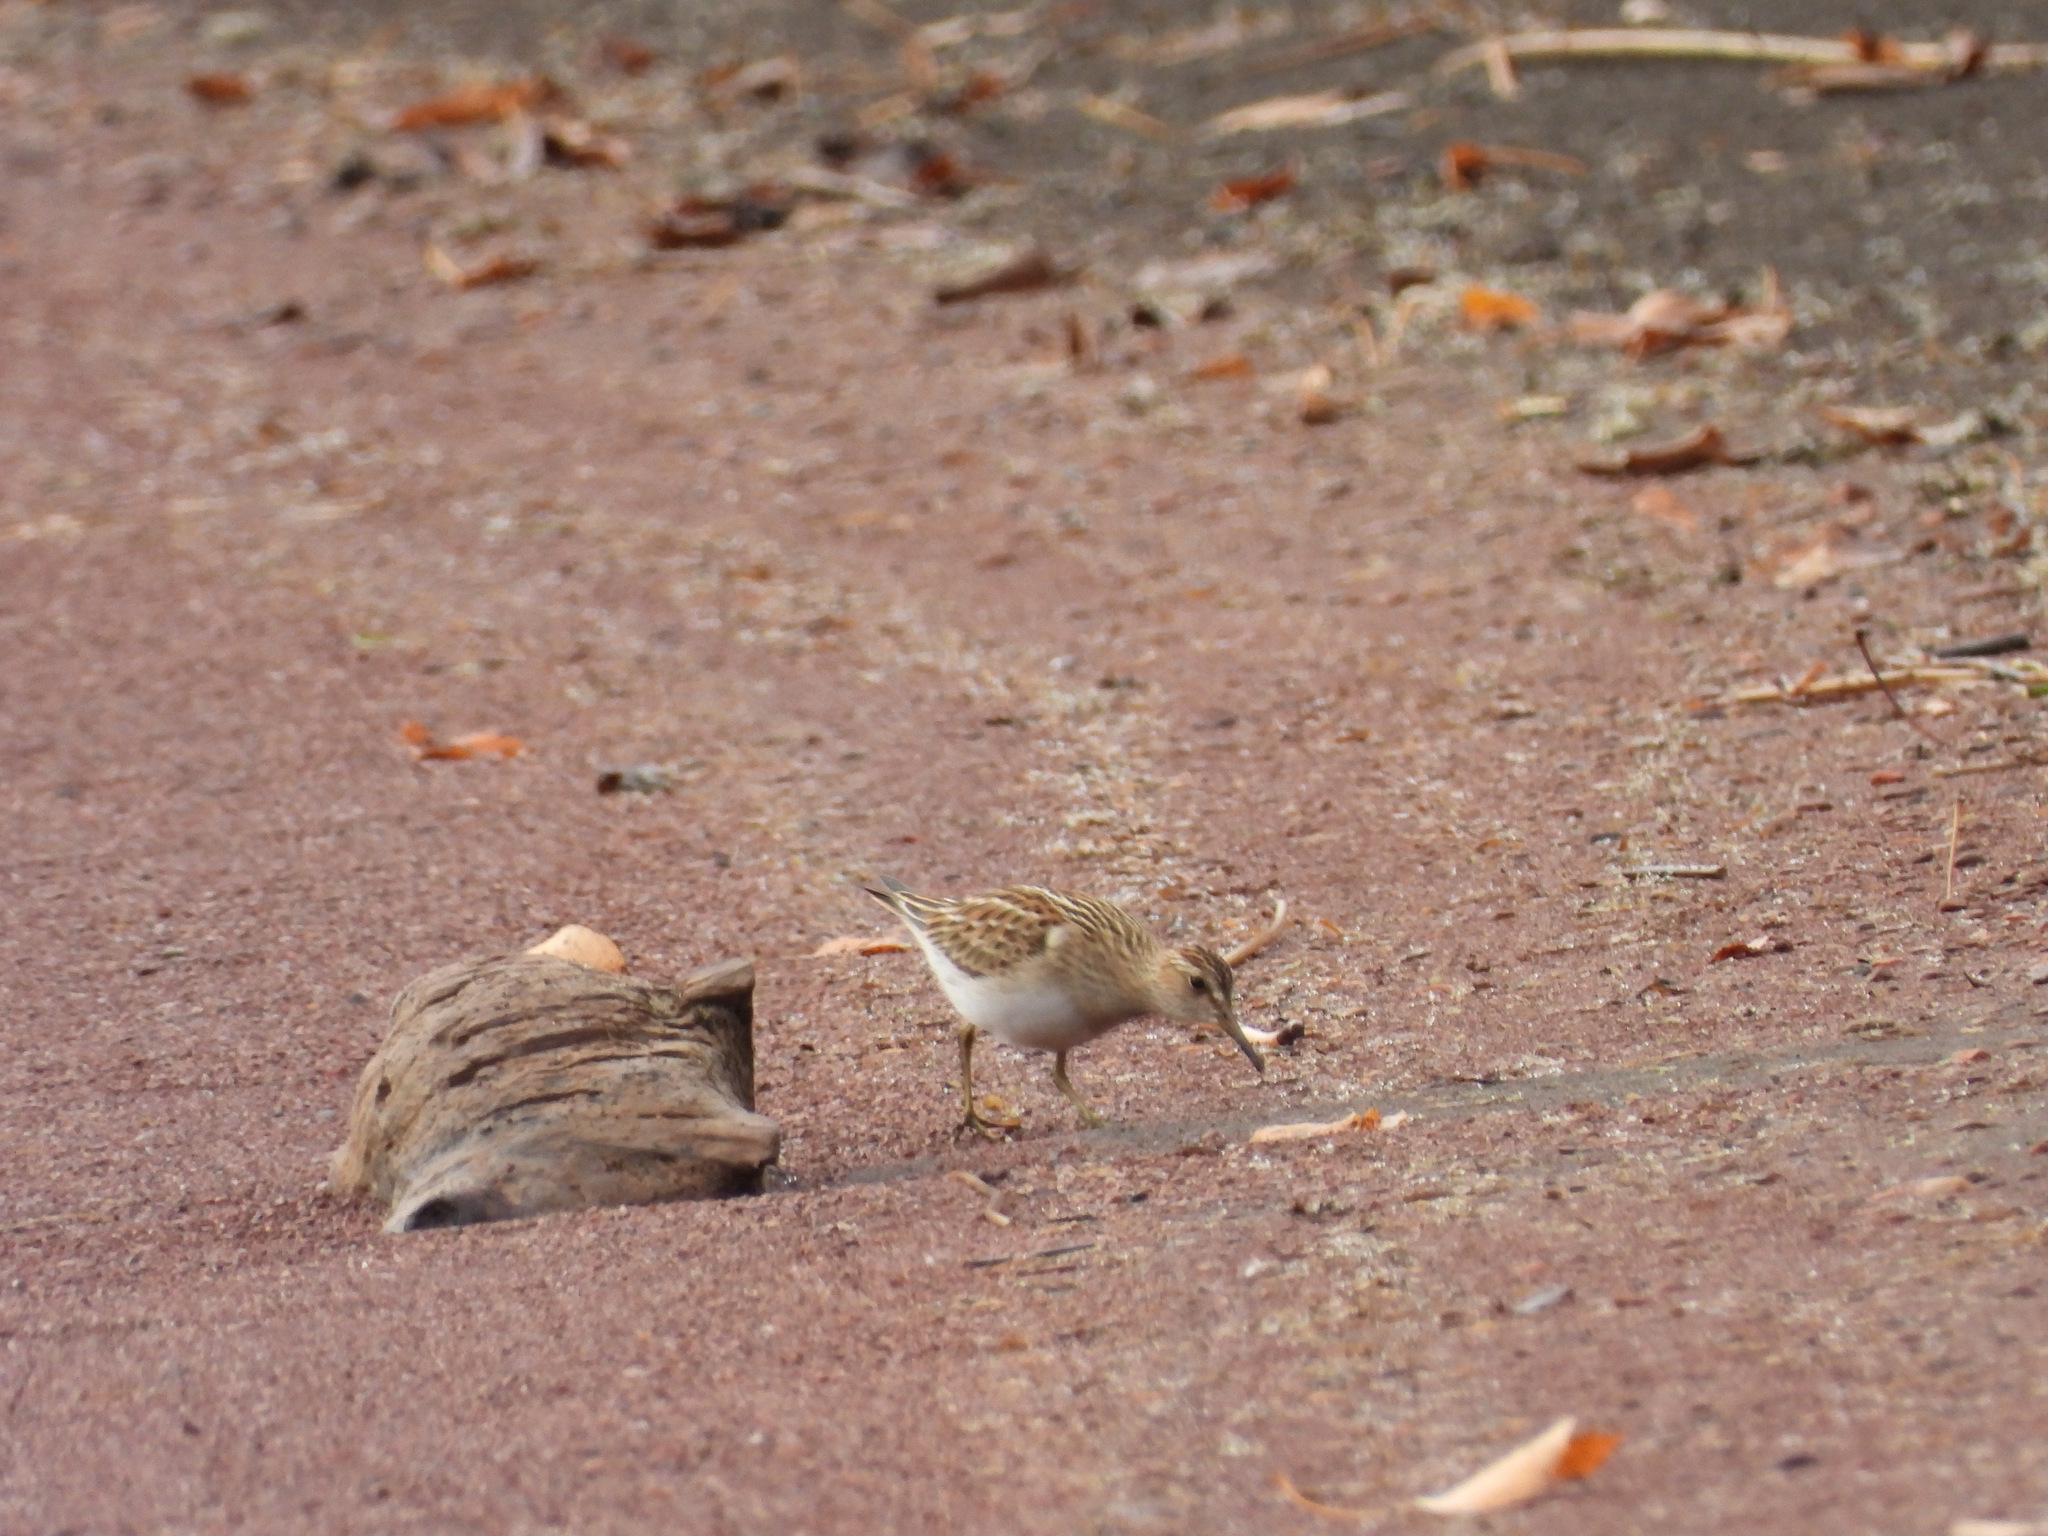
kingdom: Animalia
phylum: Chordata
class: Aves
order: Charadriiformes
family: Scolopacidae
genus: Calidris
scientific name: Calidris melanotos
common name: Pectoral sandpiper
